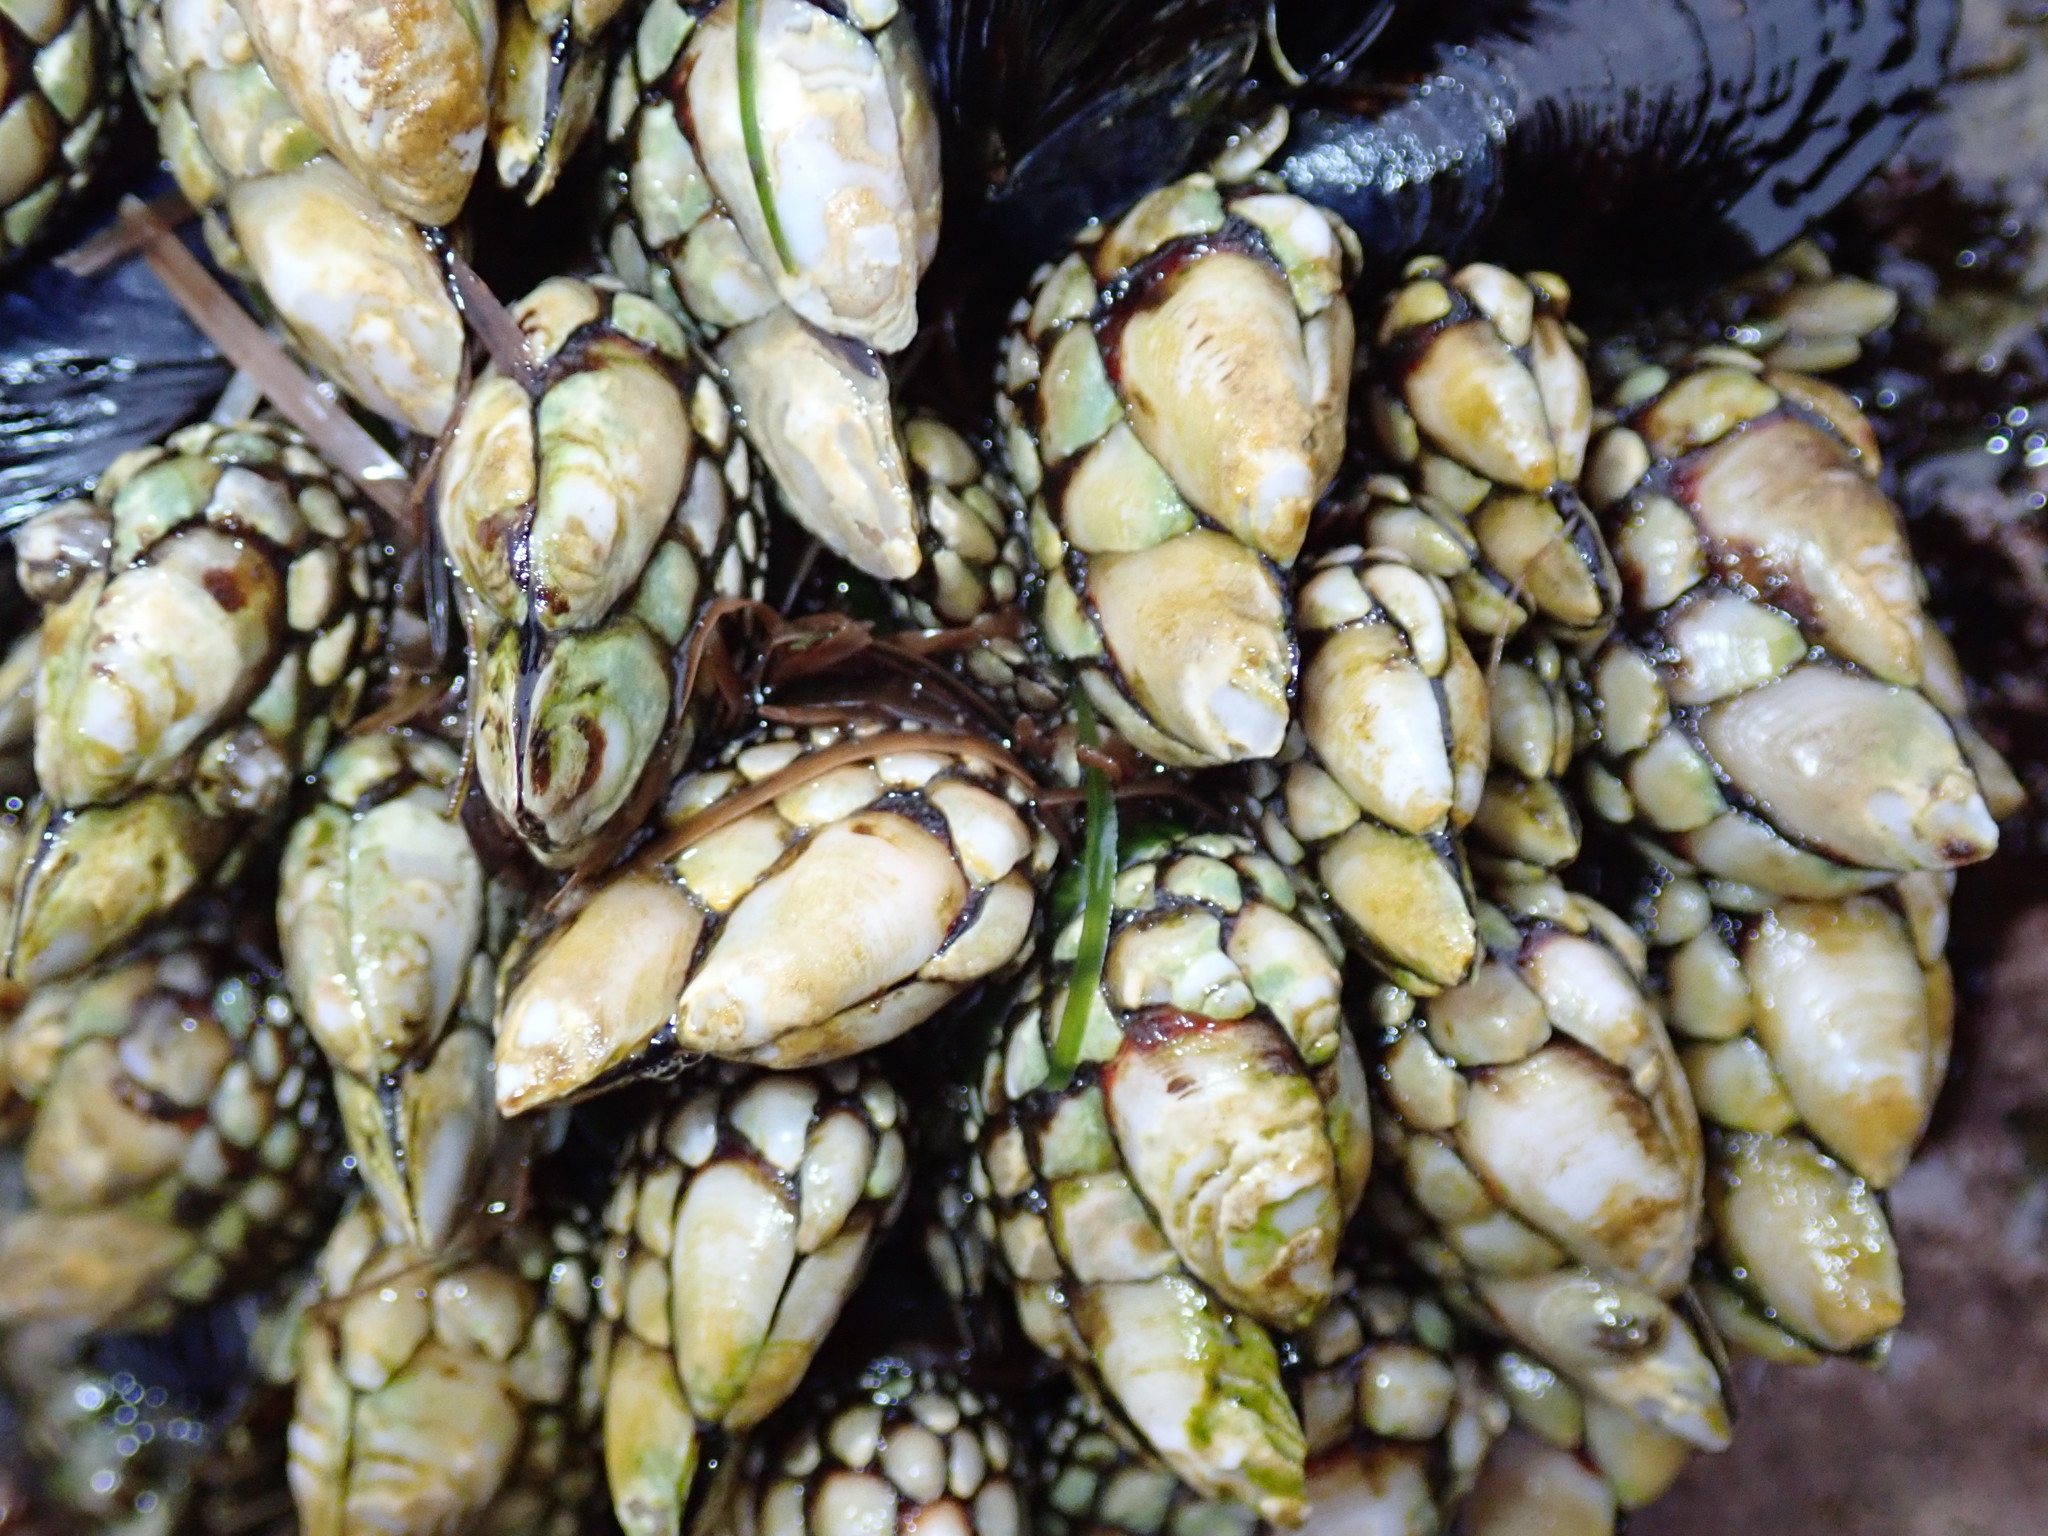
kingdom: Animalia
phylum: Arthropoda
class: Maxillopoda
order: Pedunculata
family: Pollicipedidae
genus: Pollicipes
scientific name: Pollicipes polymerus
